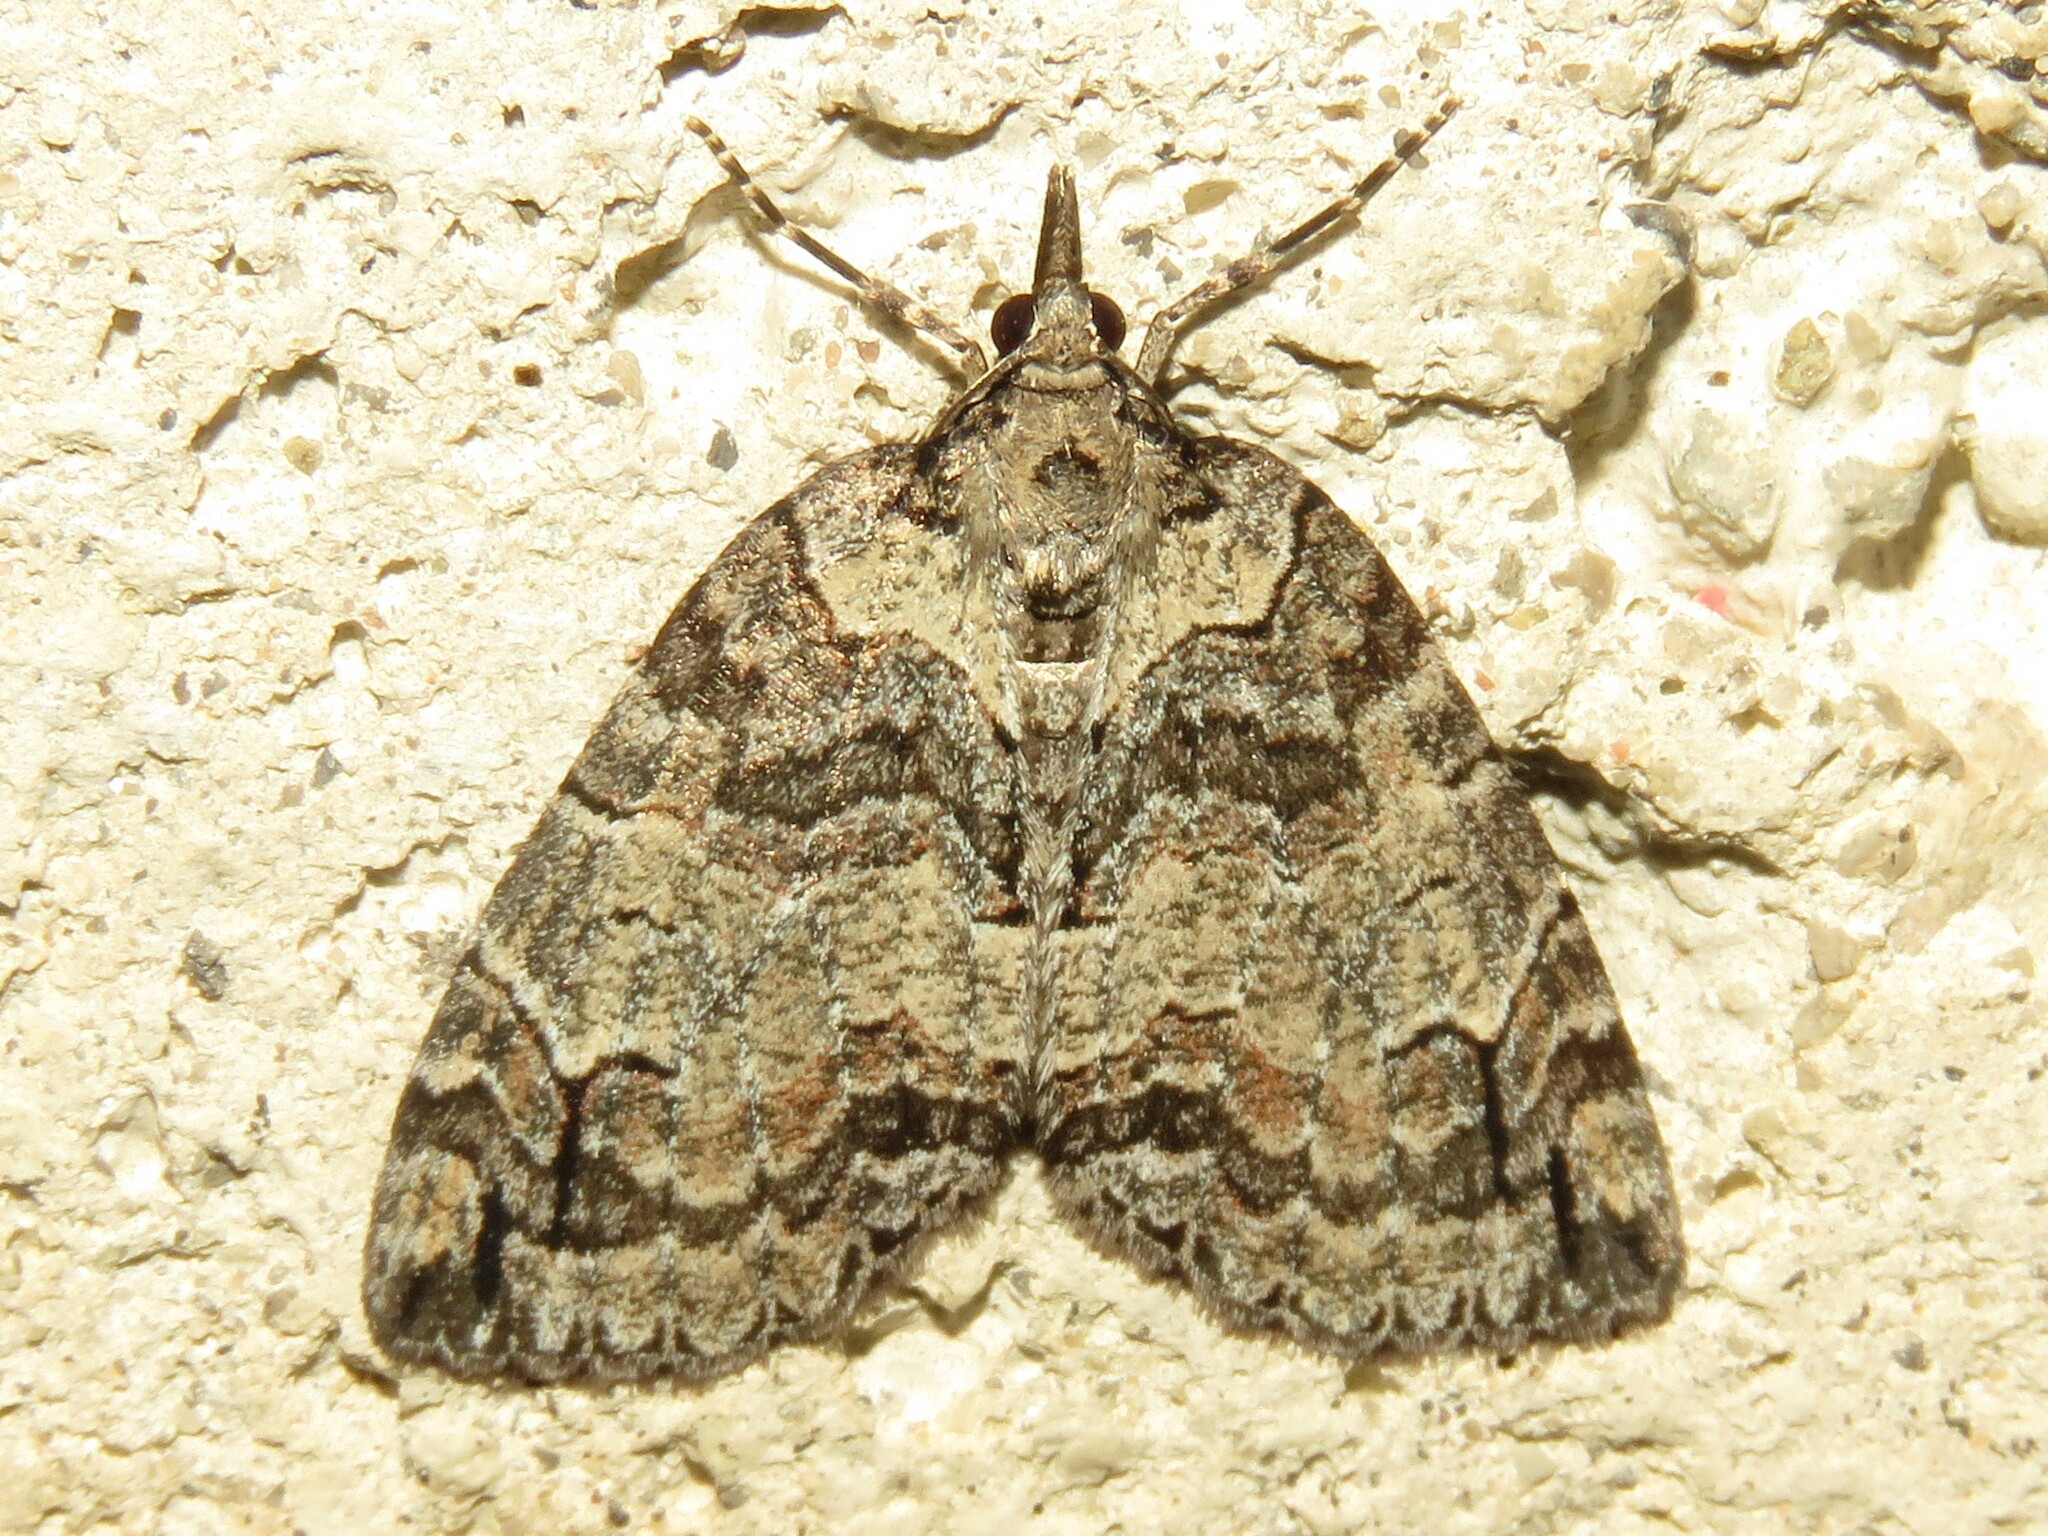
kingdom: Animalia
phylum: Arthropoda
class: Insecta
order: Lepidoptera
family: Geometridae
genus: Hydriomena
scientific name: Hydriomena ruberata
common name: Ruddy highflyer
